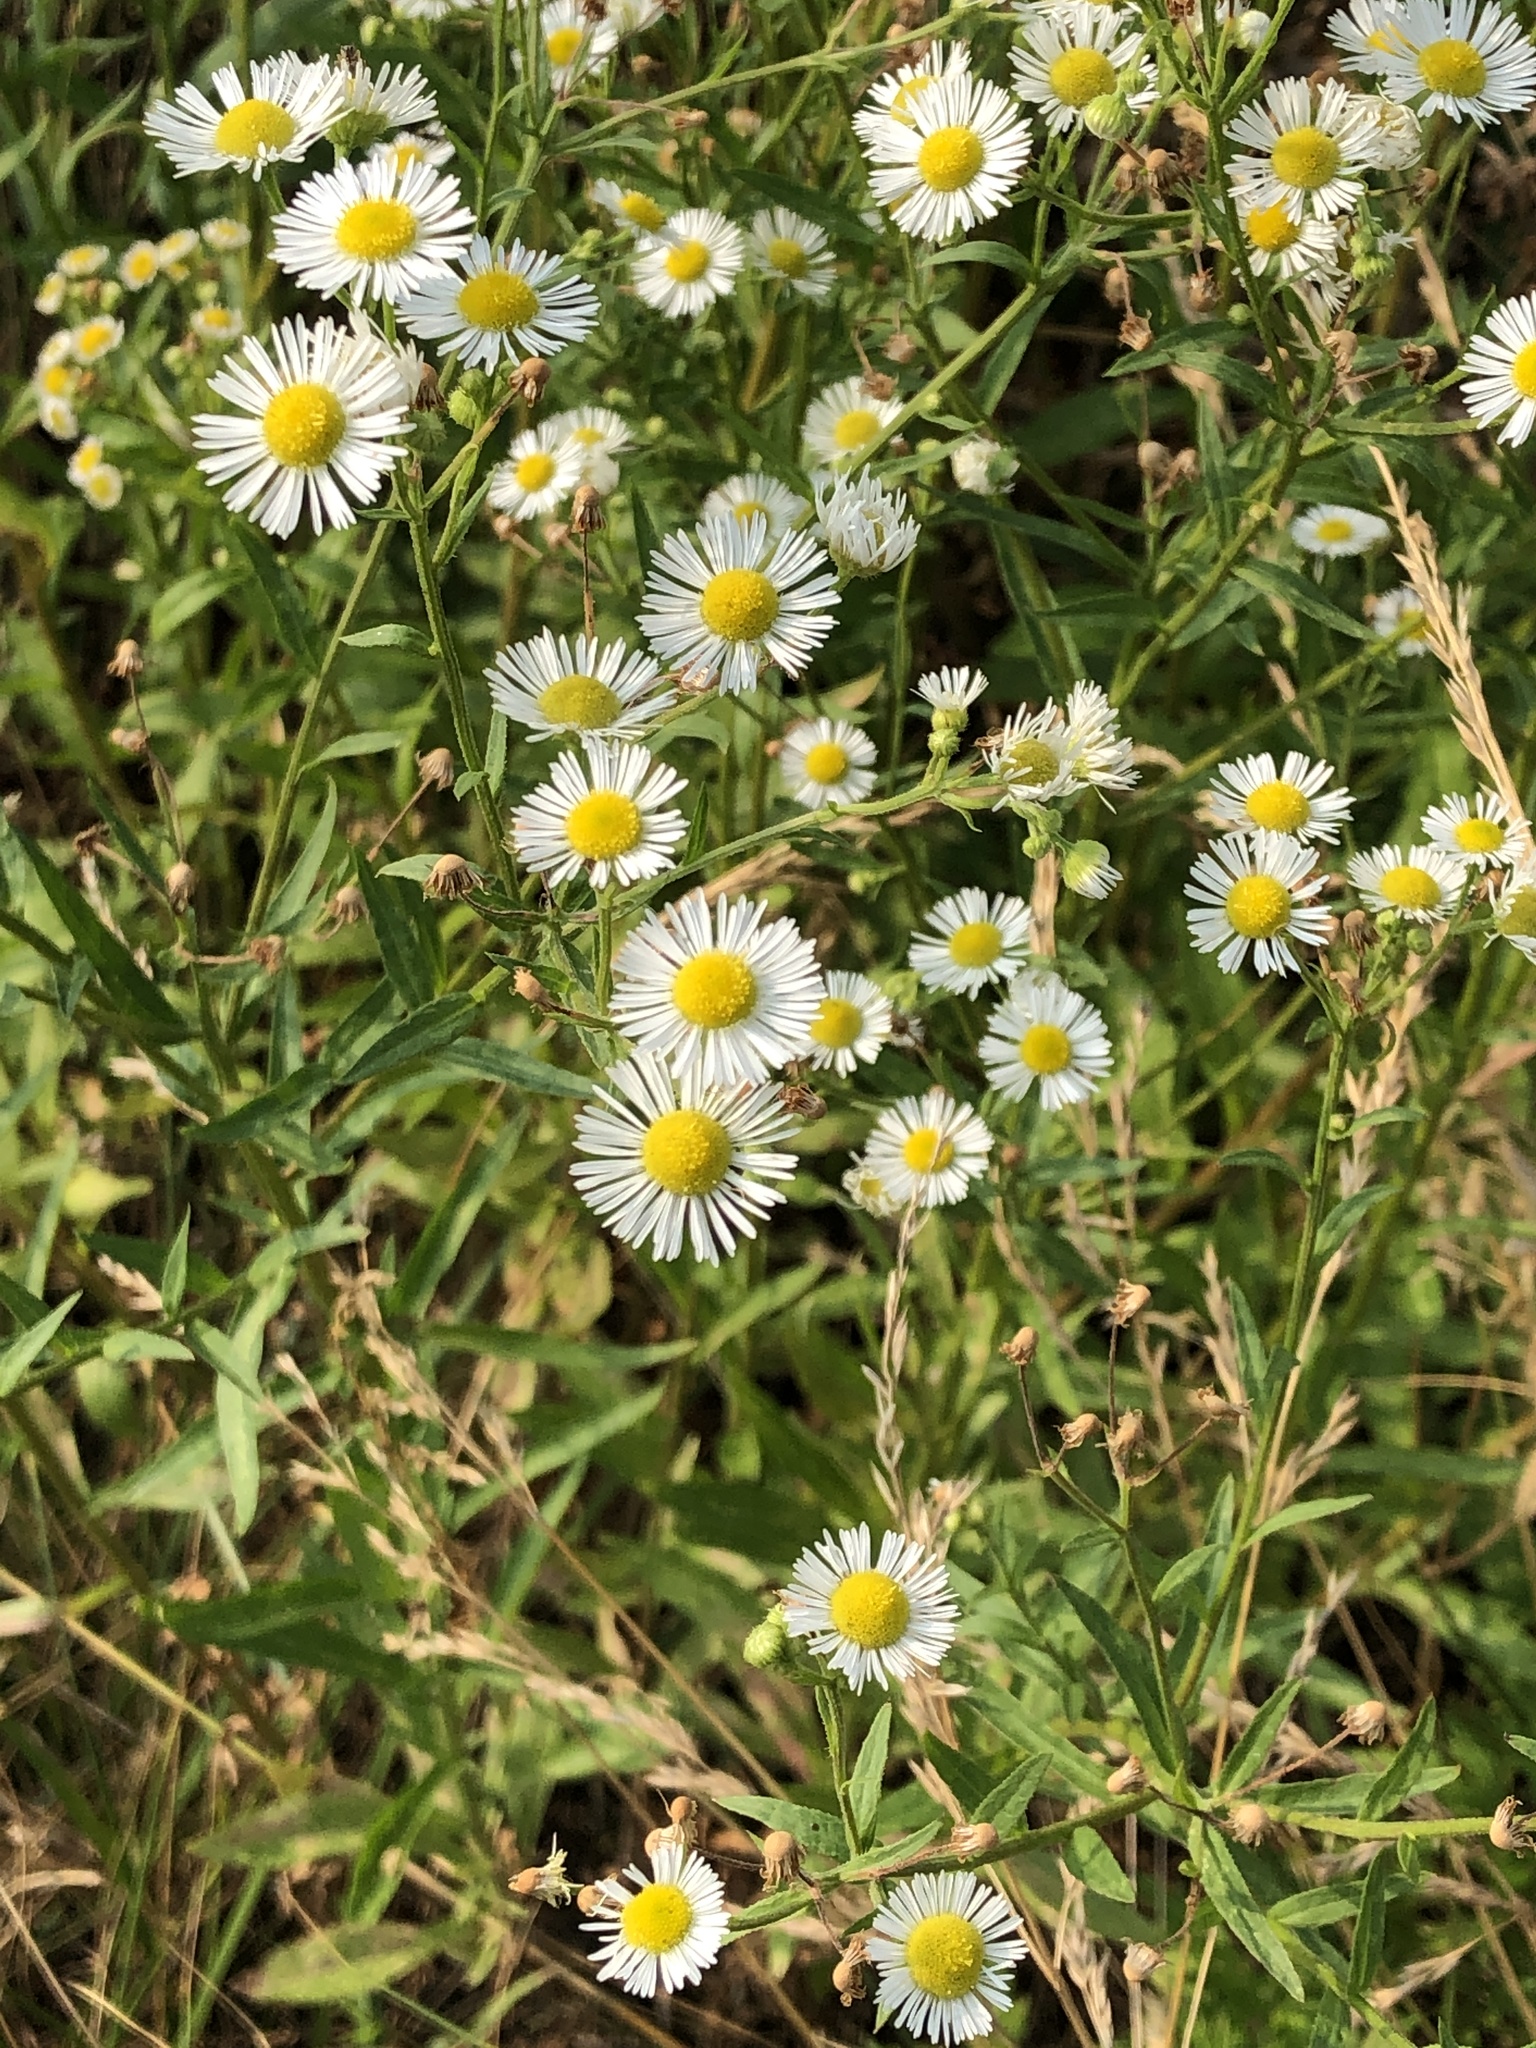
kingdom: Plantae
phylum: Tracheophyta
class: Magnoliopsida
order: Asterales
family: Asteraceae
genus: Erigeron
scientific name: Erigeron annuus
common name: Tall fleabane
